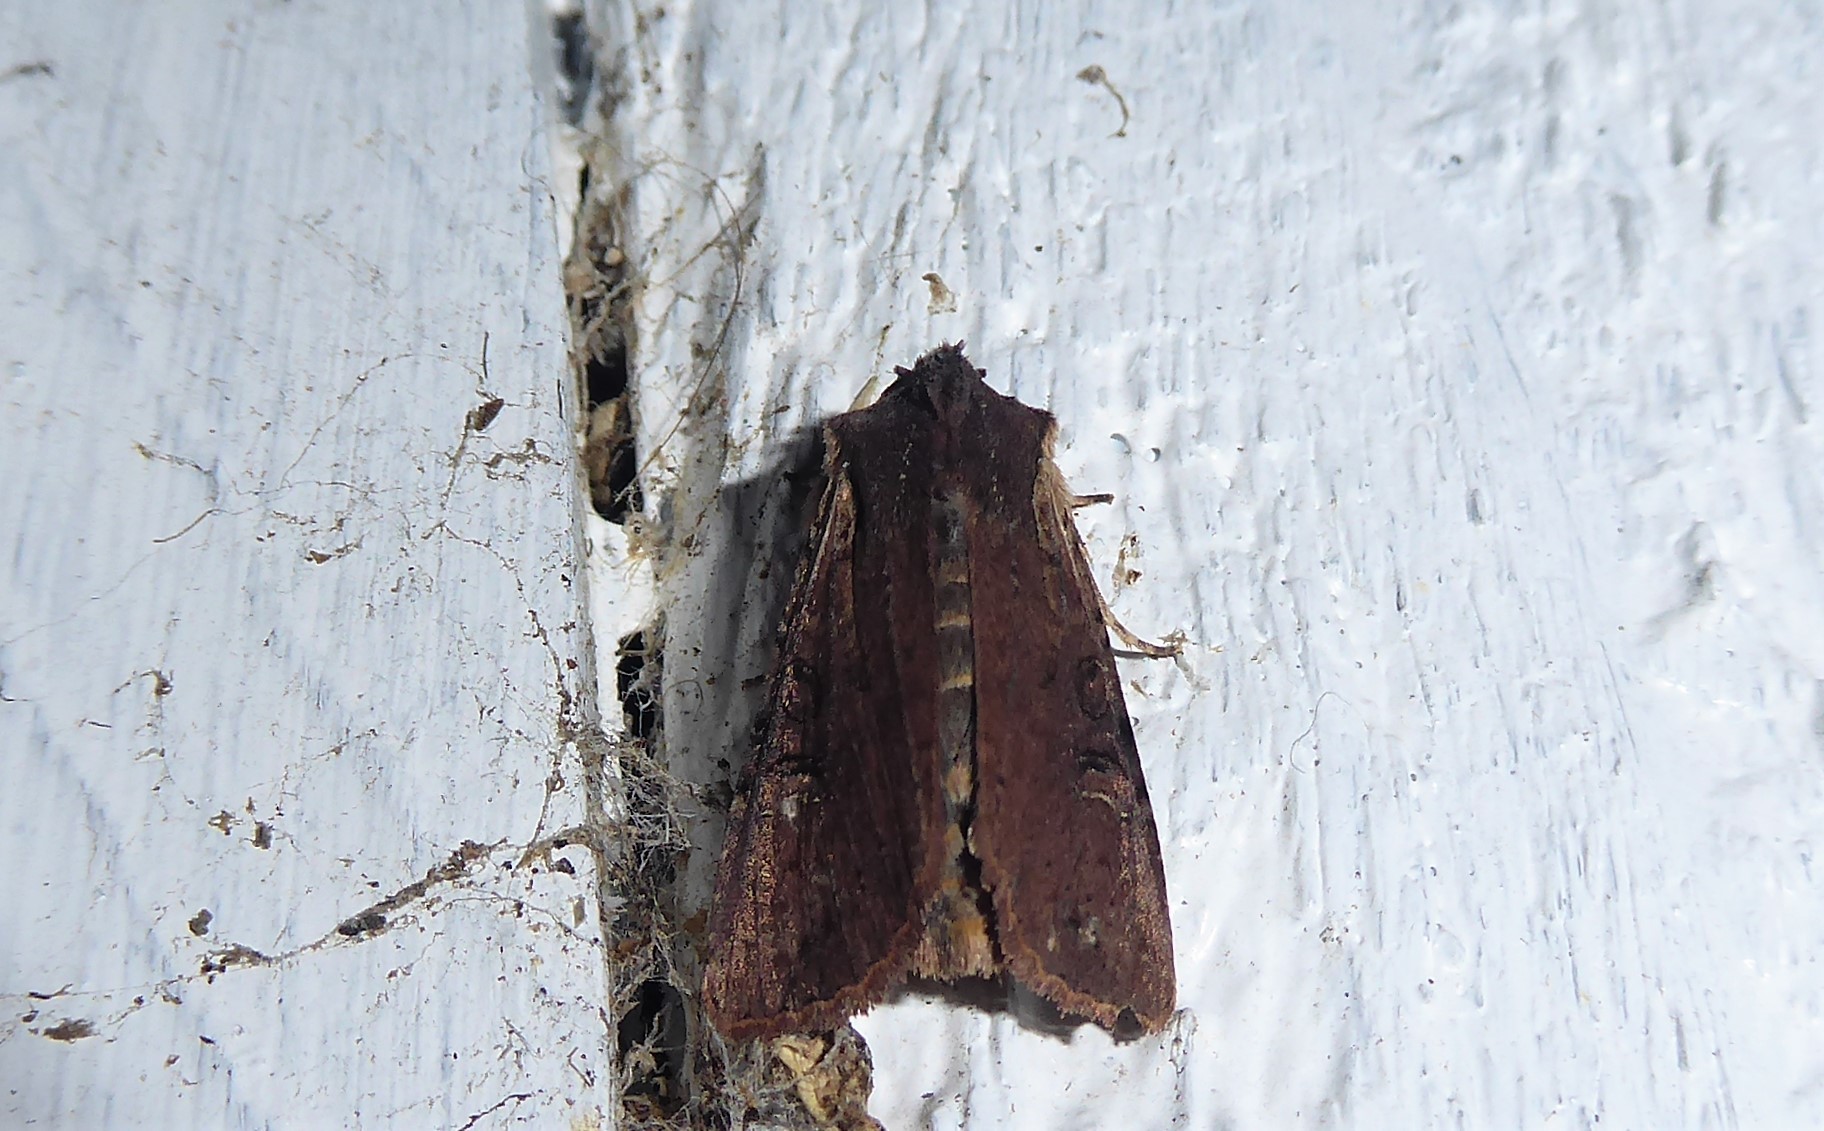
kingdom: Animalia
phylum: Arthropoda
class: Insecta
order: Lepidoptera
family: Noctuidae
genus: Ichneutica
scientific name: Ichneutica omoplaca
